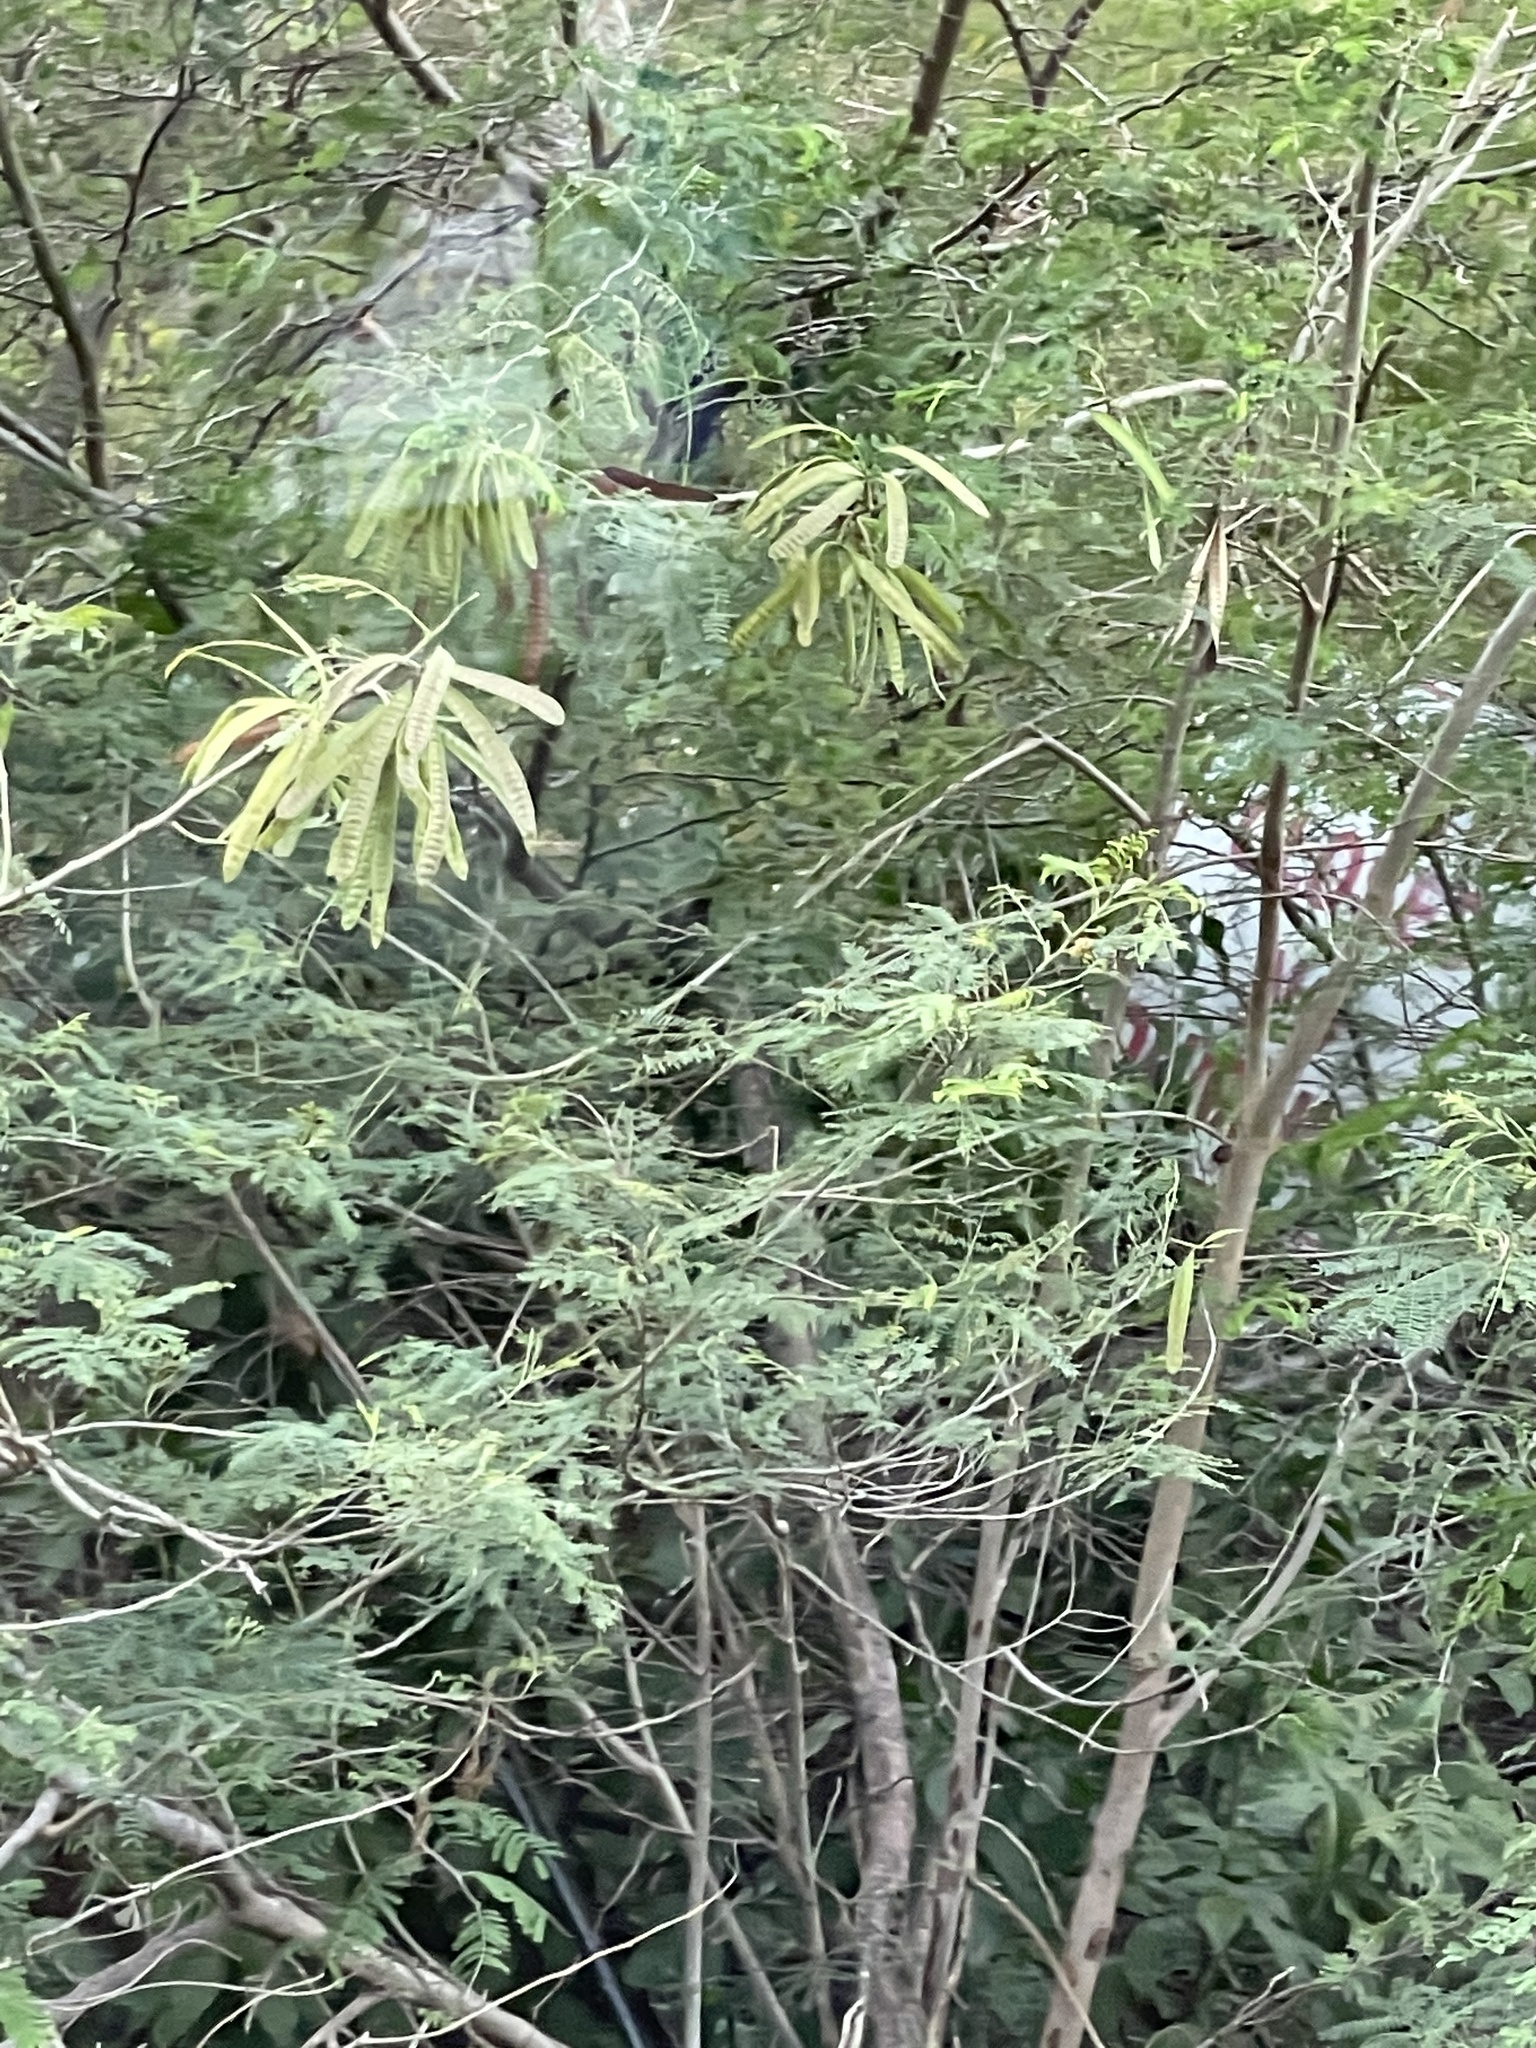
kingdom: Plantae
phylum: Tracheophyta
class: Magnoliopsida
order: Fabales
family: Fabaceae
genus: Leucaena
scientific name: Leucaena leucocephala
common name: White leadtree
